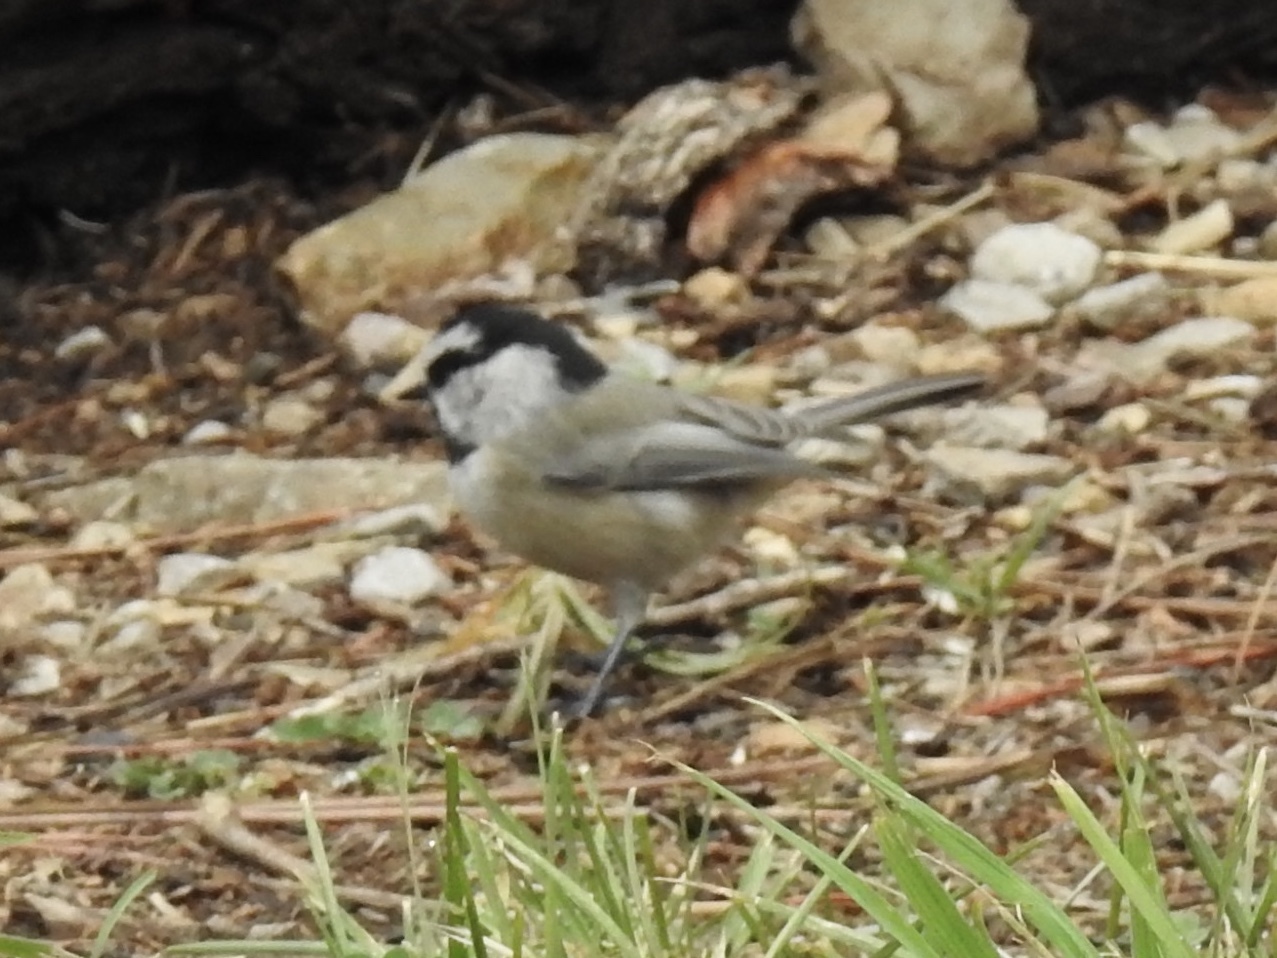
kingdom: Animalia
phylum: Chordata
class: Aves
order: Passeriformes
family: Paridae
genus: Poecile
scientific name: Poecile gambeli
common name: Mountain chickadee
